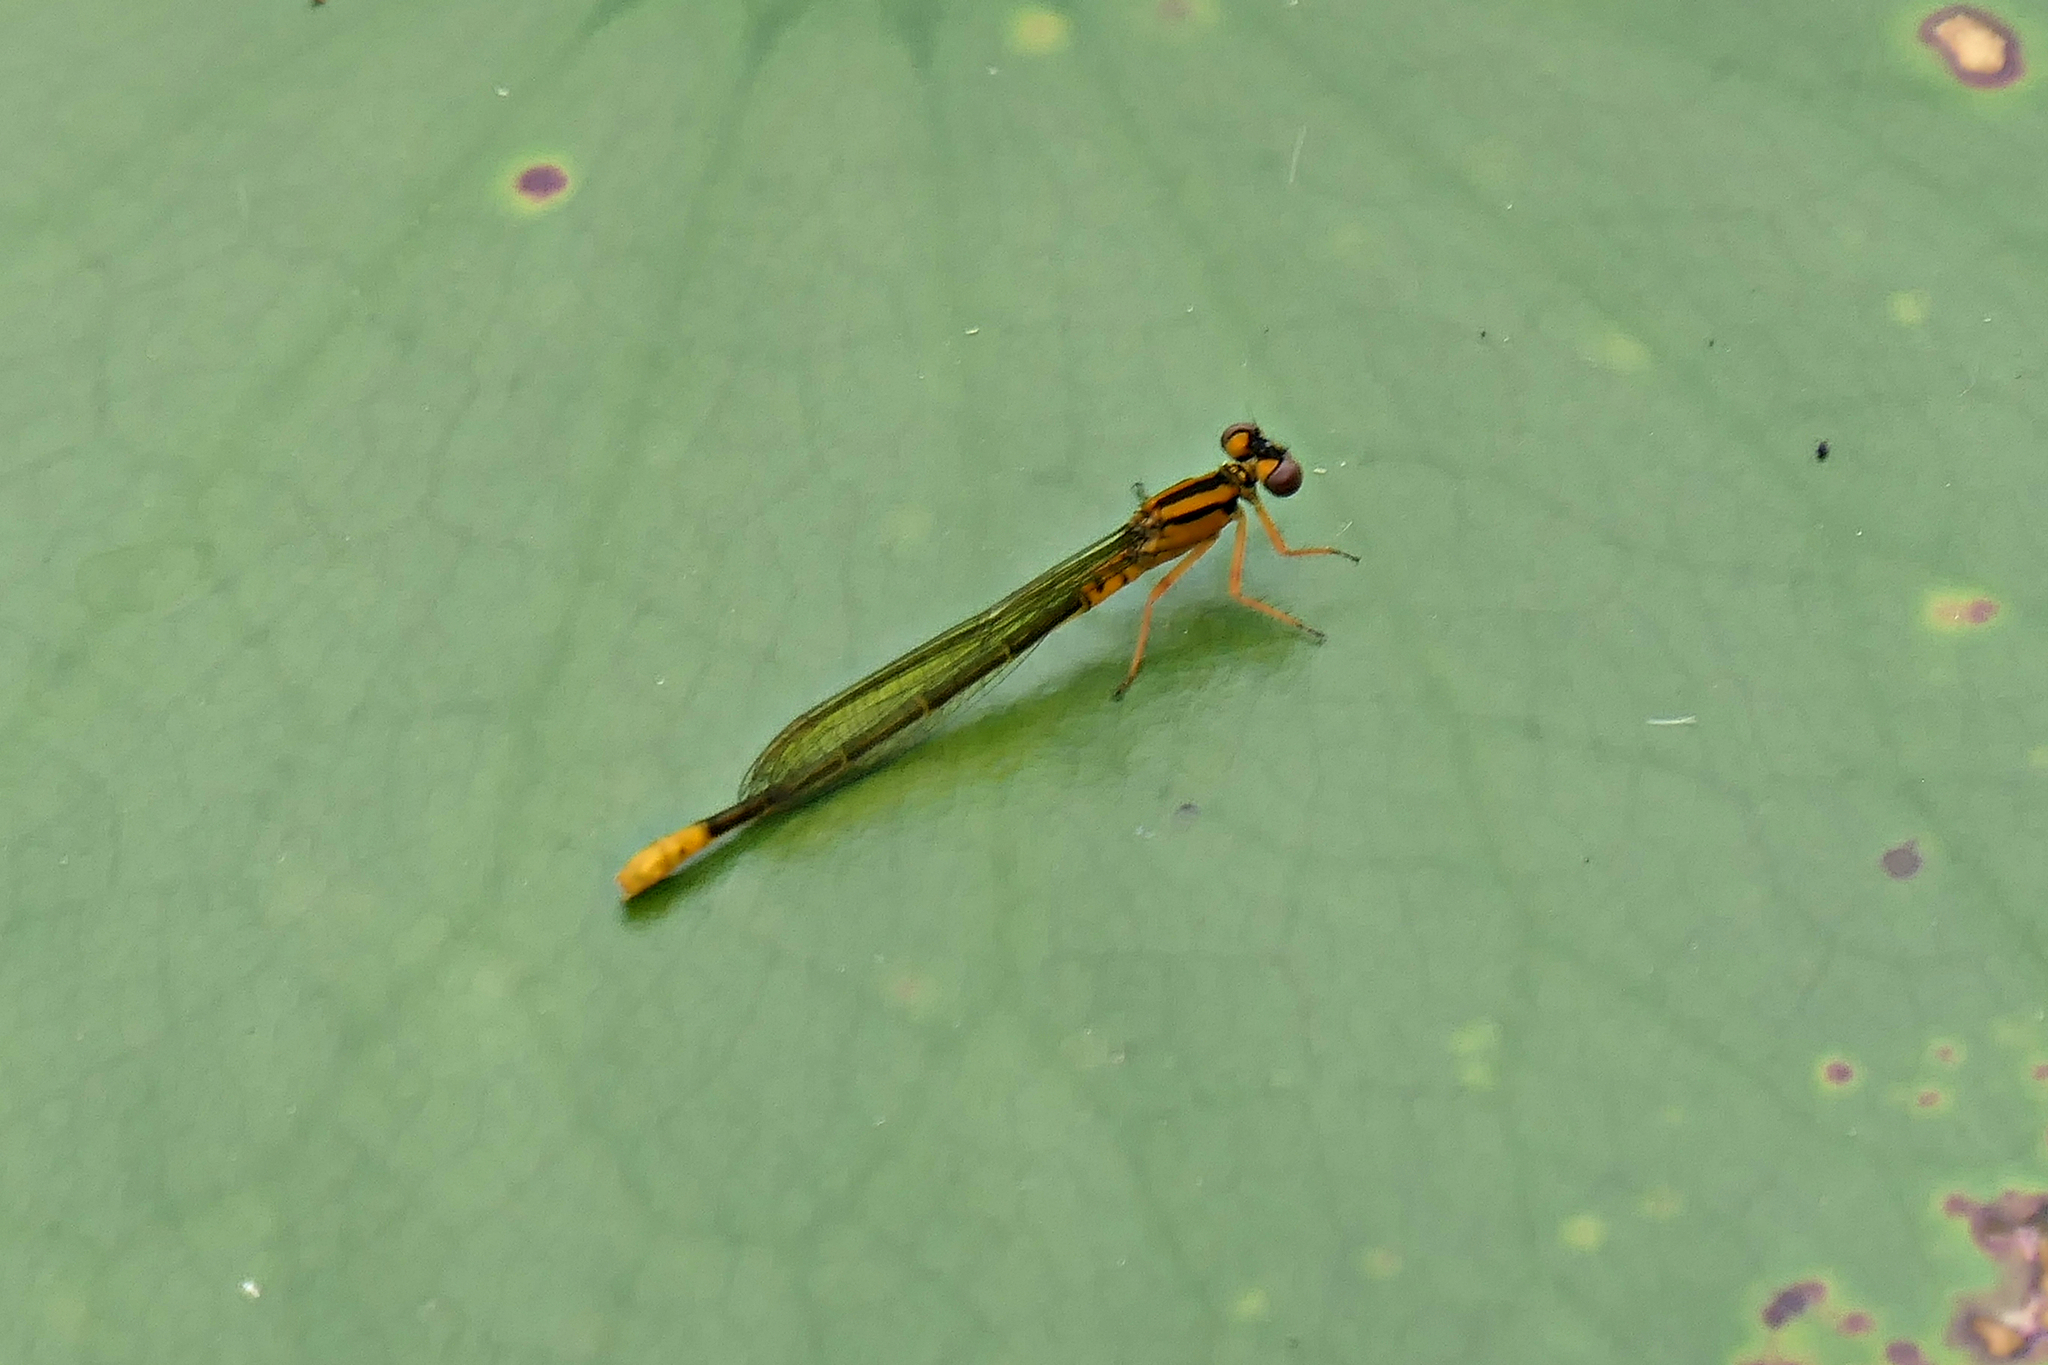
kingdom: Animalia
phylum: Arthropoda
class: Insecta
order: Odonata
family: Coenagrionidae
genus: Ischnura
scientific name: Ischnura kellicotti
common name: Lilypad forktail
